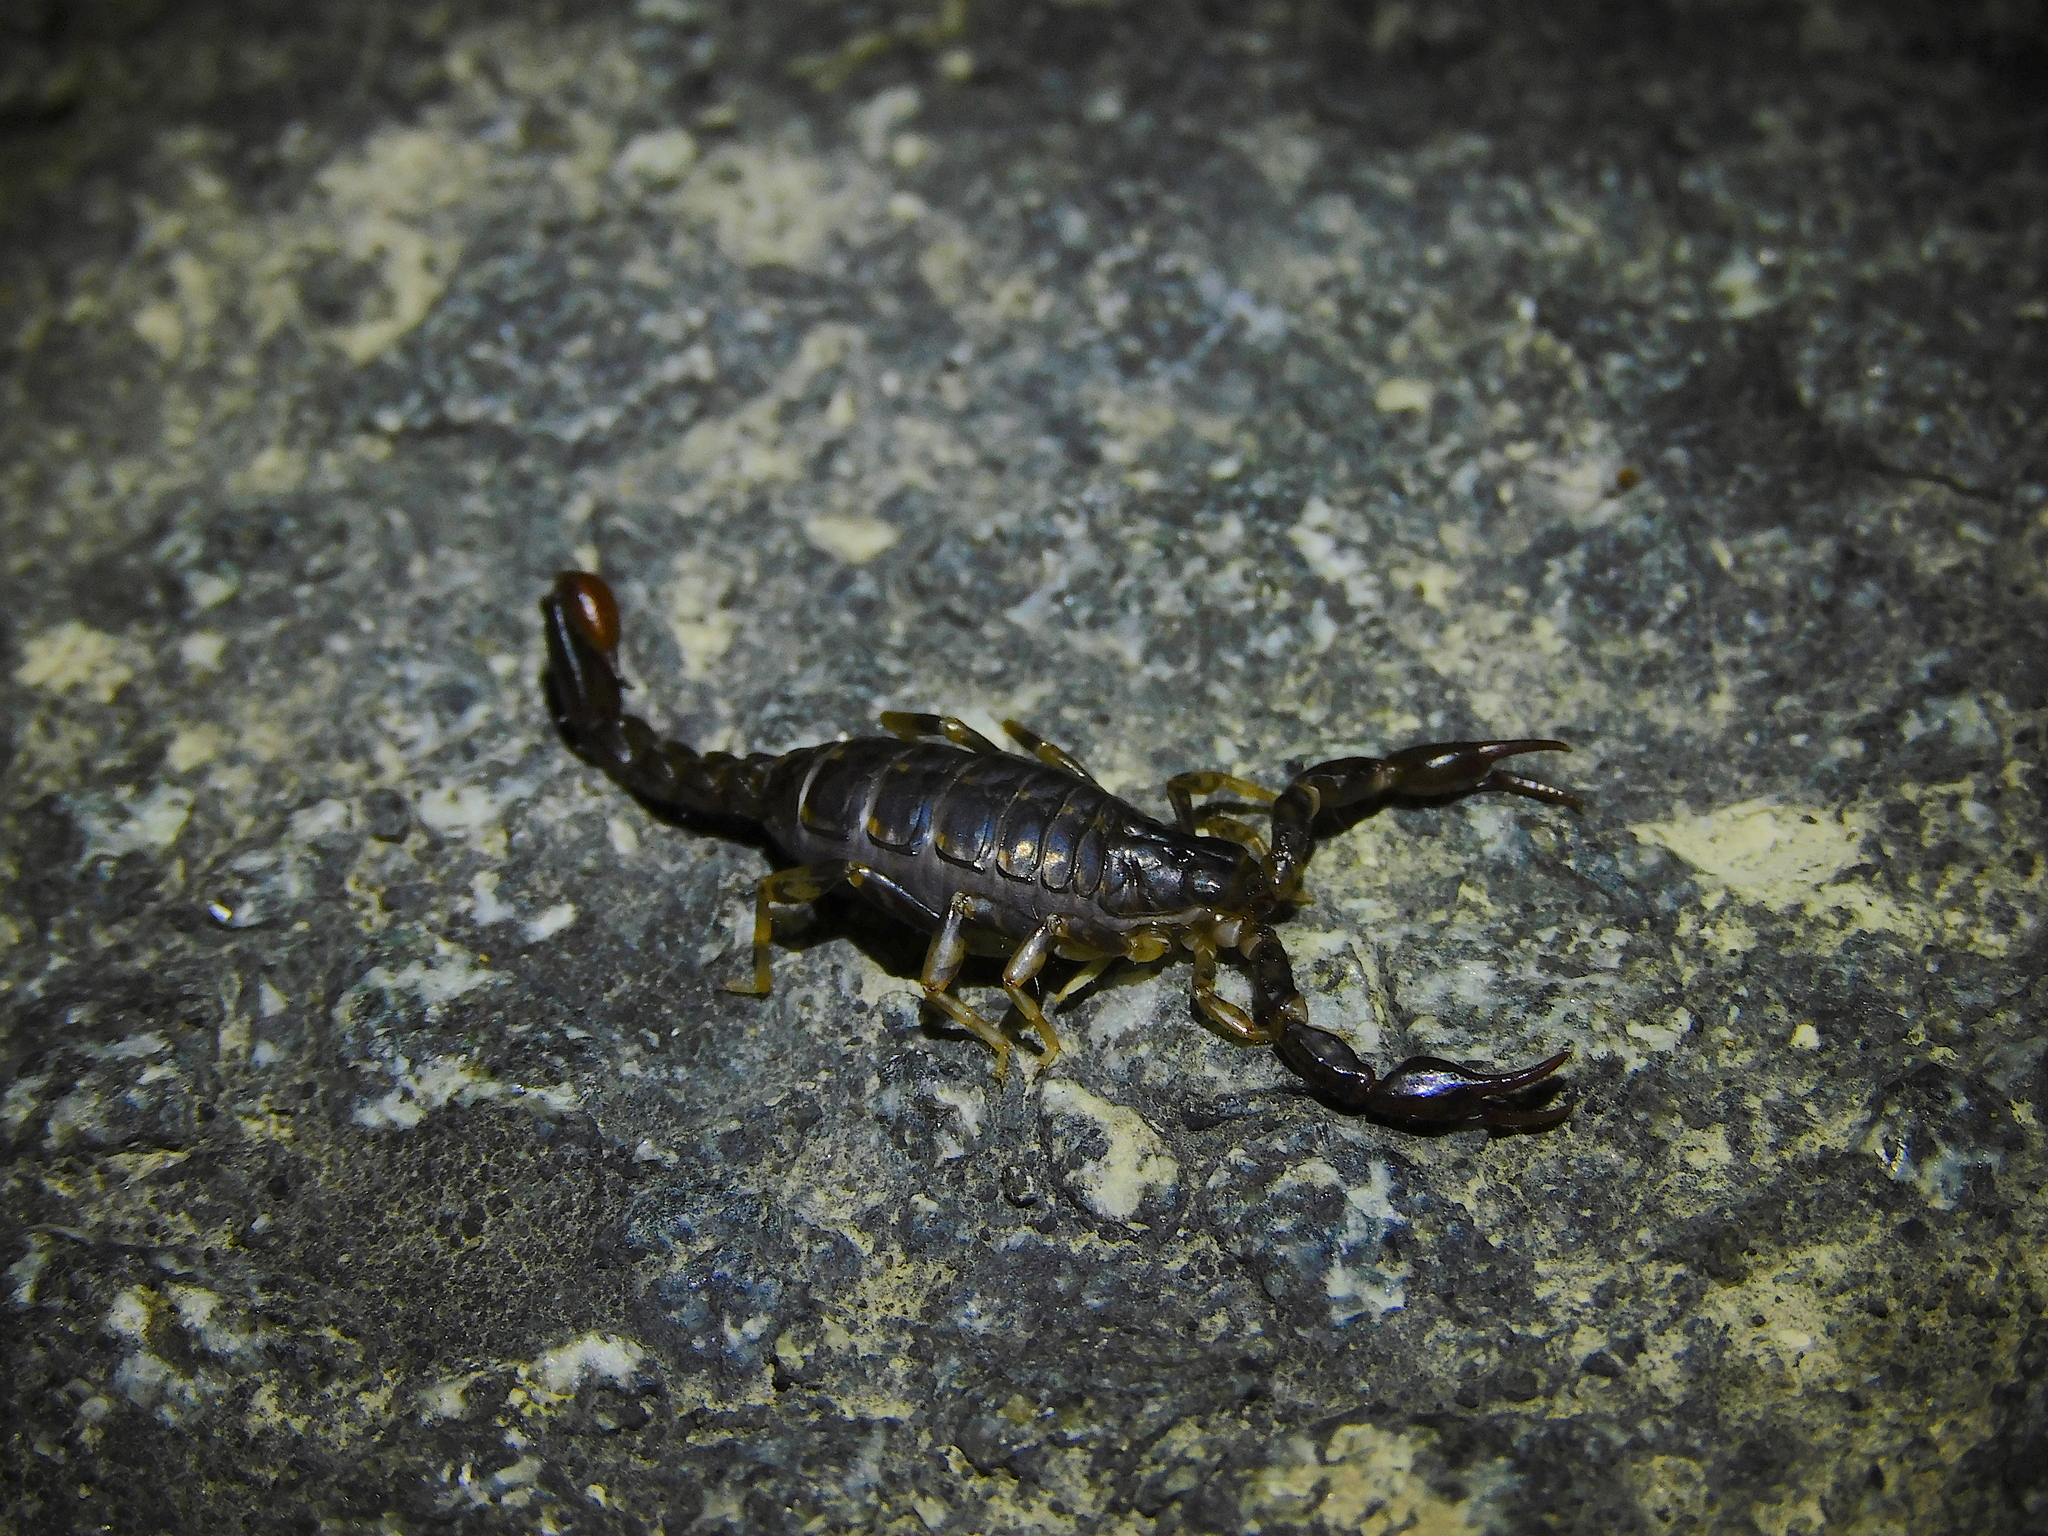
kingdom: Animalia
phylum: Arthropoda
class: Arachnida
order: Scorpiones
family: Bothriuridae
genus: Cercophonius
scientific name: Cercophonius squama
